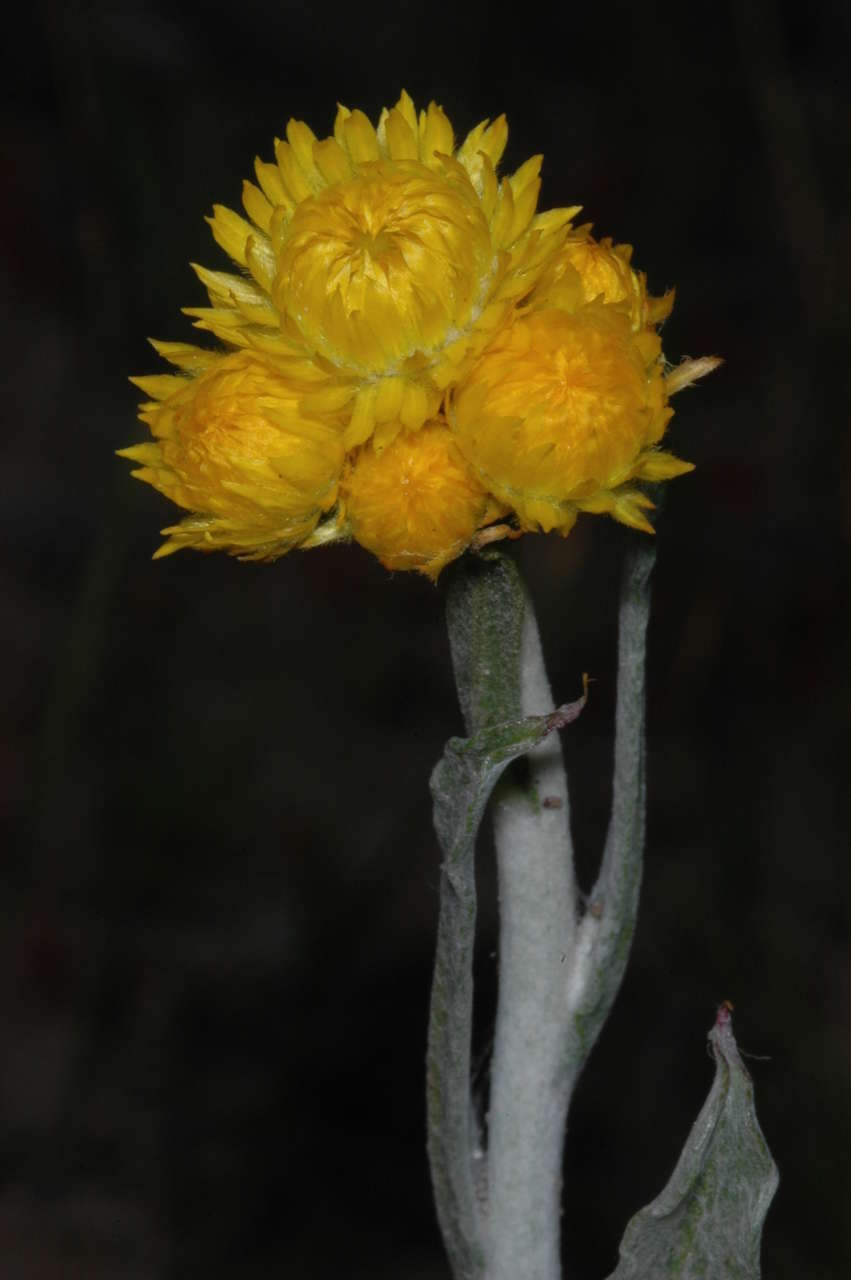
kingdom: Plantae
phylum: Tracheophyta
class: Magnoliopsida
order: Asterales
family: Asteraceae
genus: Chrysocephalum
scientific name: Chrysocephalum apiculatum
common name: Common everlasting
